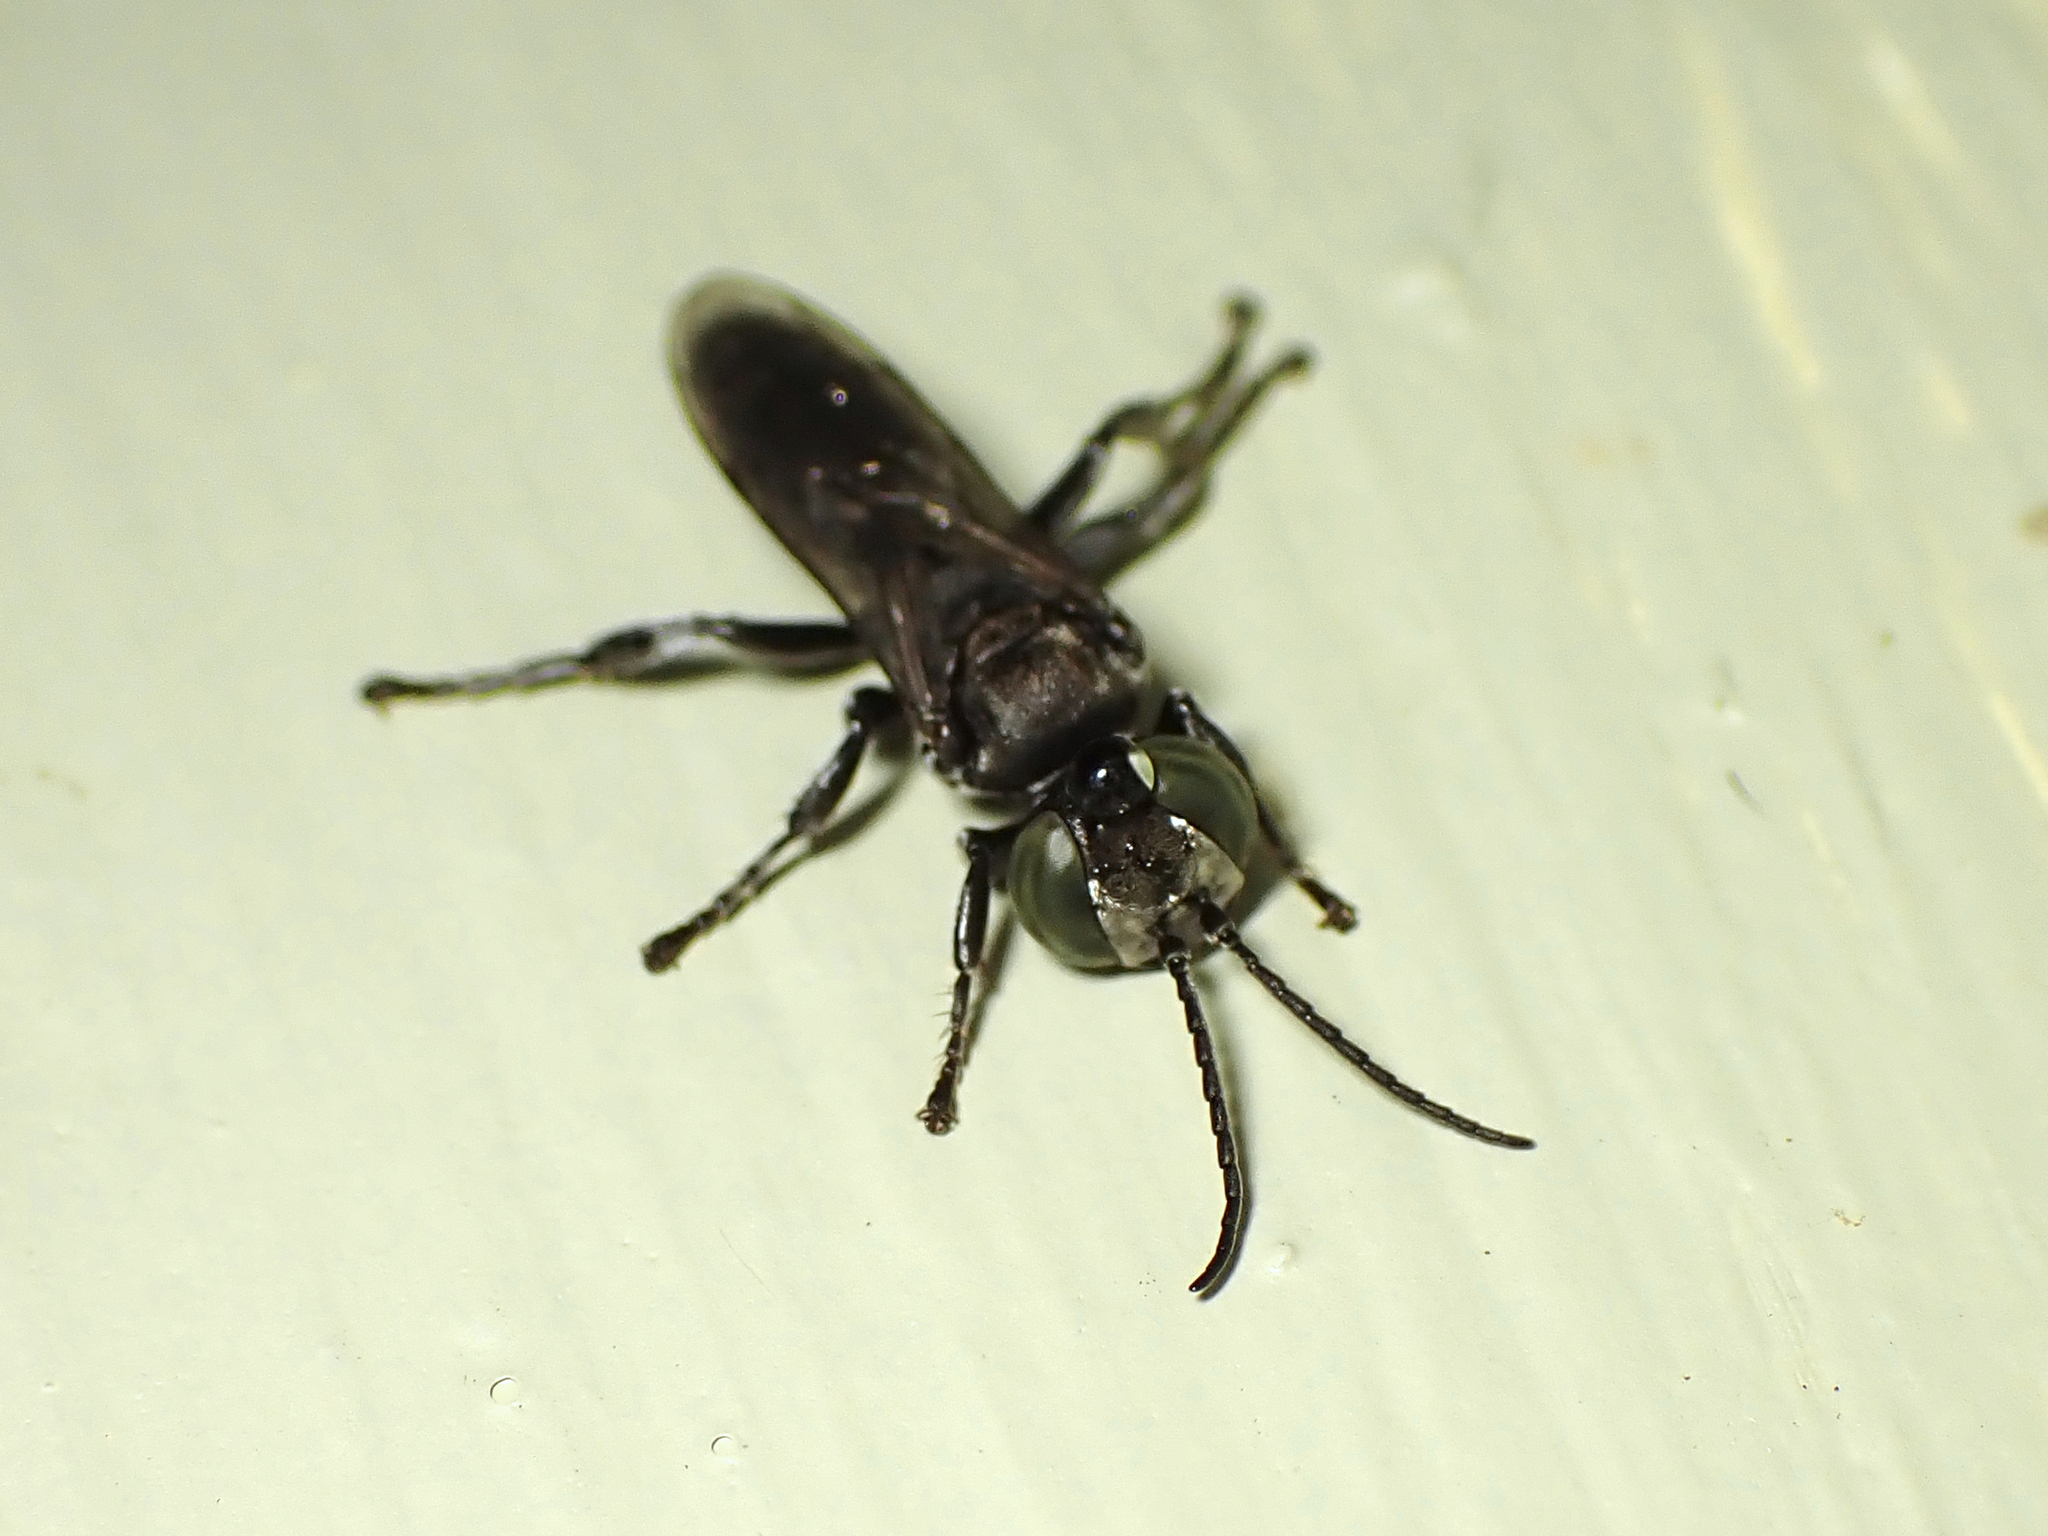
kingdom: Animalia
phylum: Arthropoda
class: Insecta
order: Hymenoptera
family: Crabronidae
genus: Tachysphex
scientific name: Tachysphex nigerrimus
